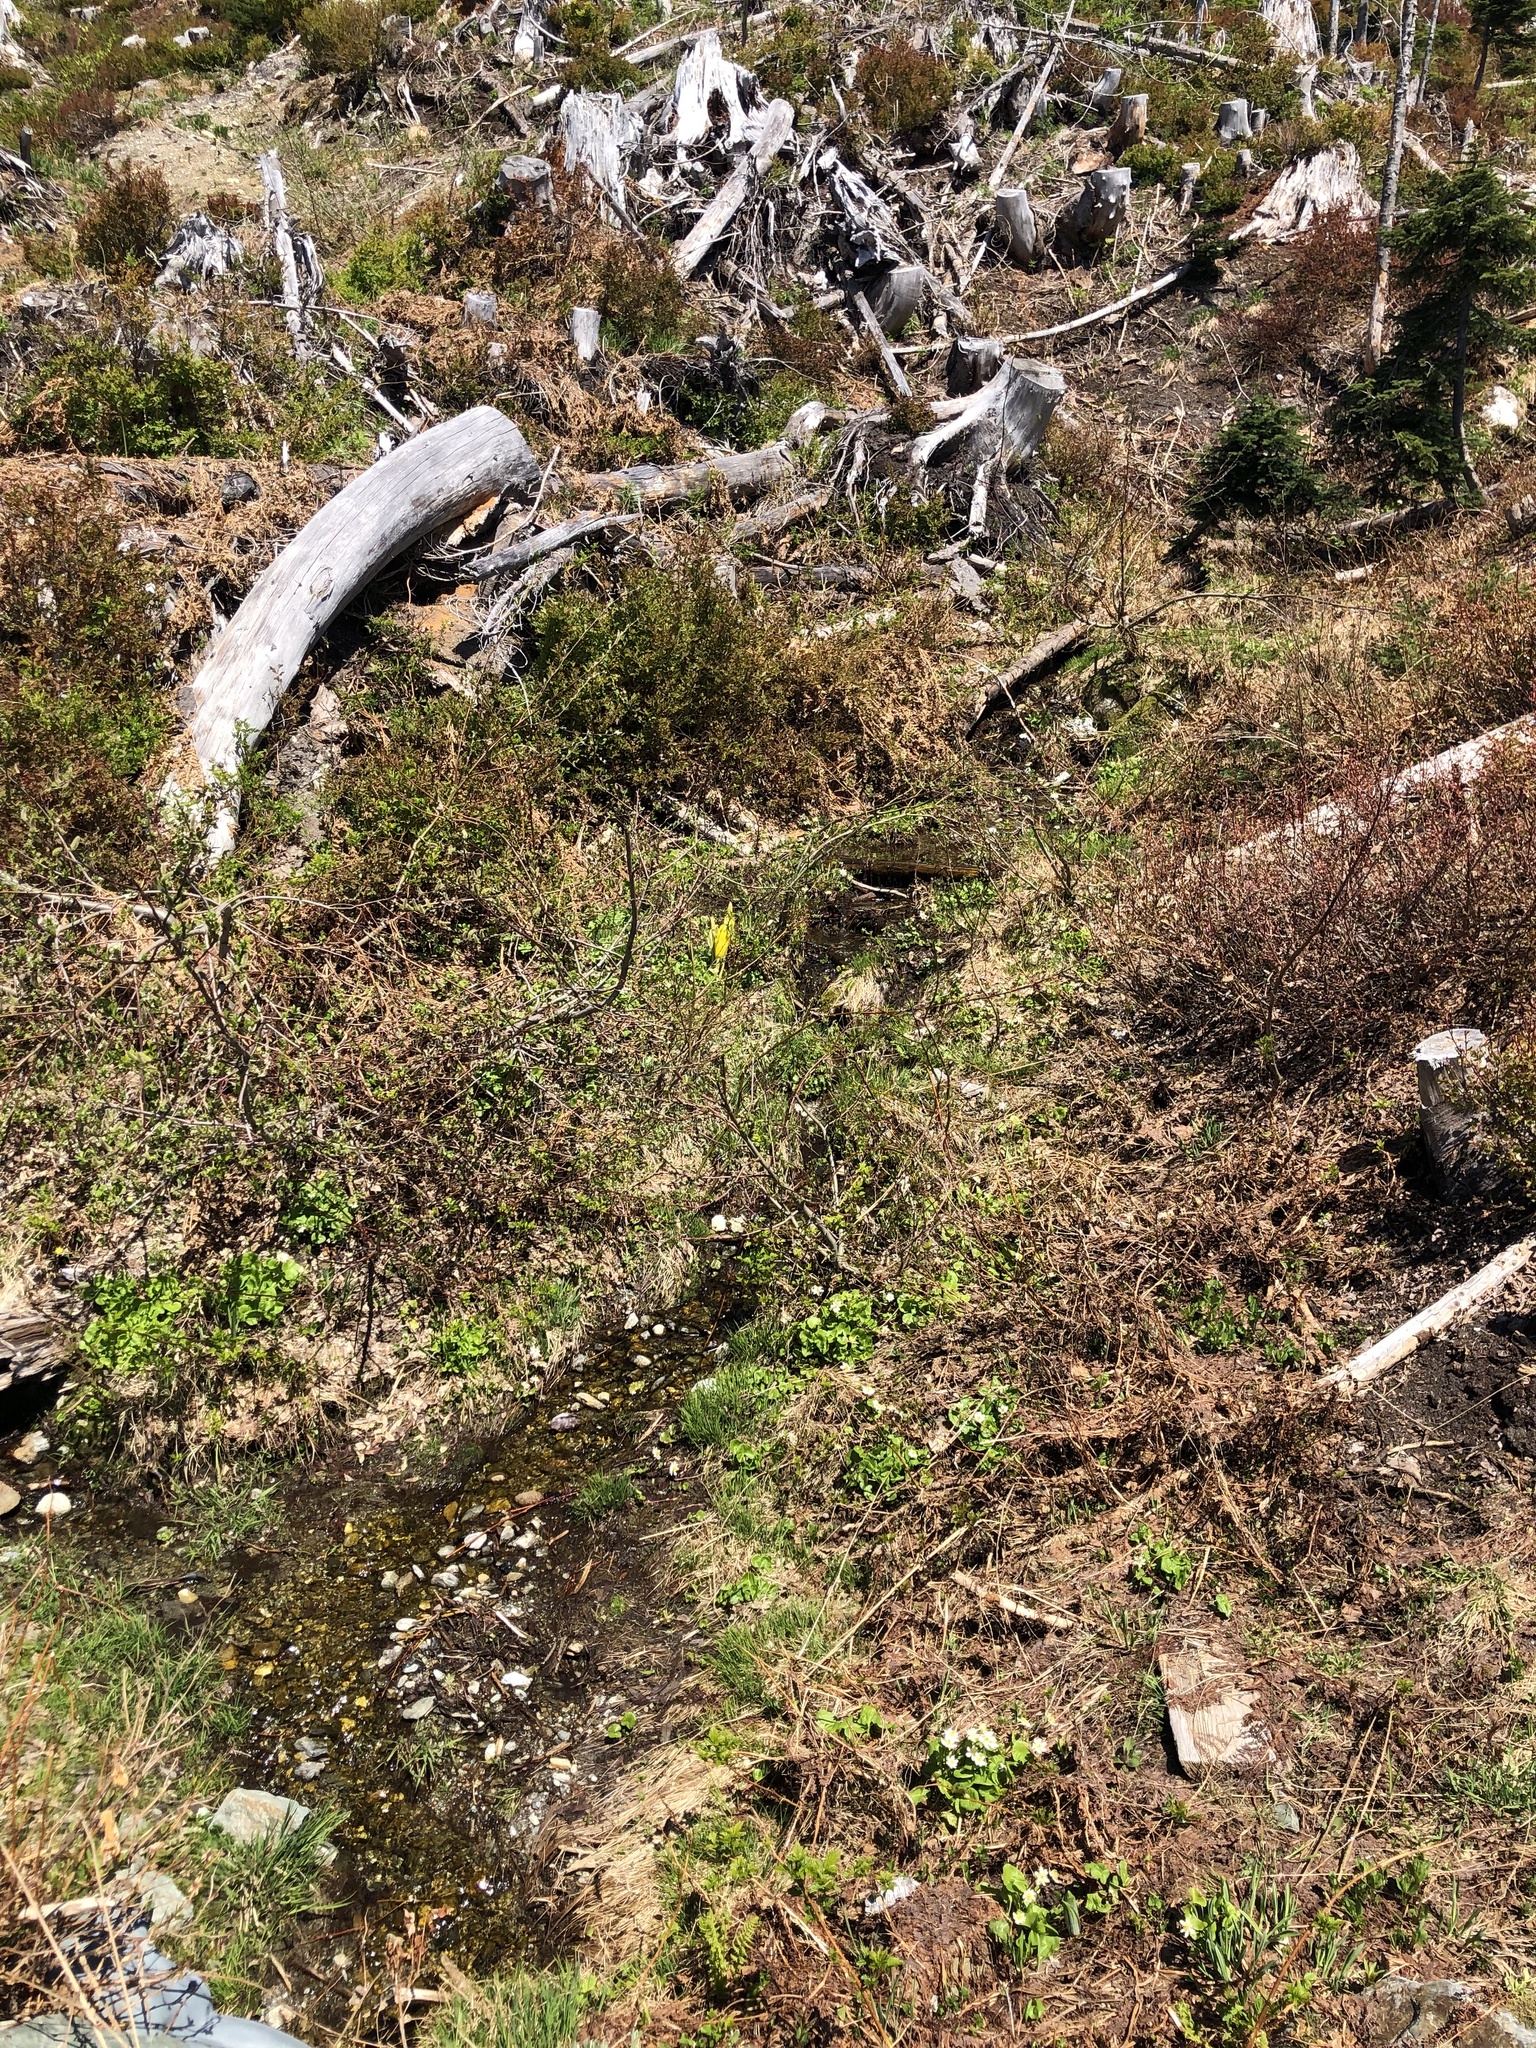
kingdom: Plantae
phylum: Tracheophyta
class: Liliopsida
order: Alismatales
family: Araceae
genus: Lysichiton
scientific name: Lysichiton americanus
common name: American skunk cabbage
